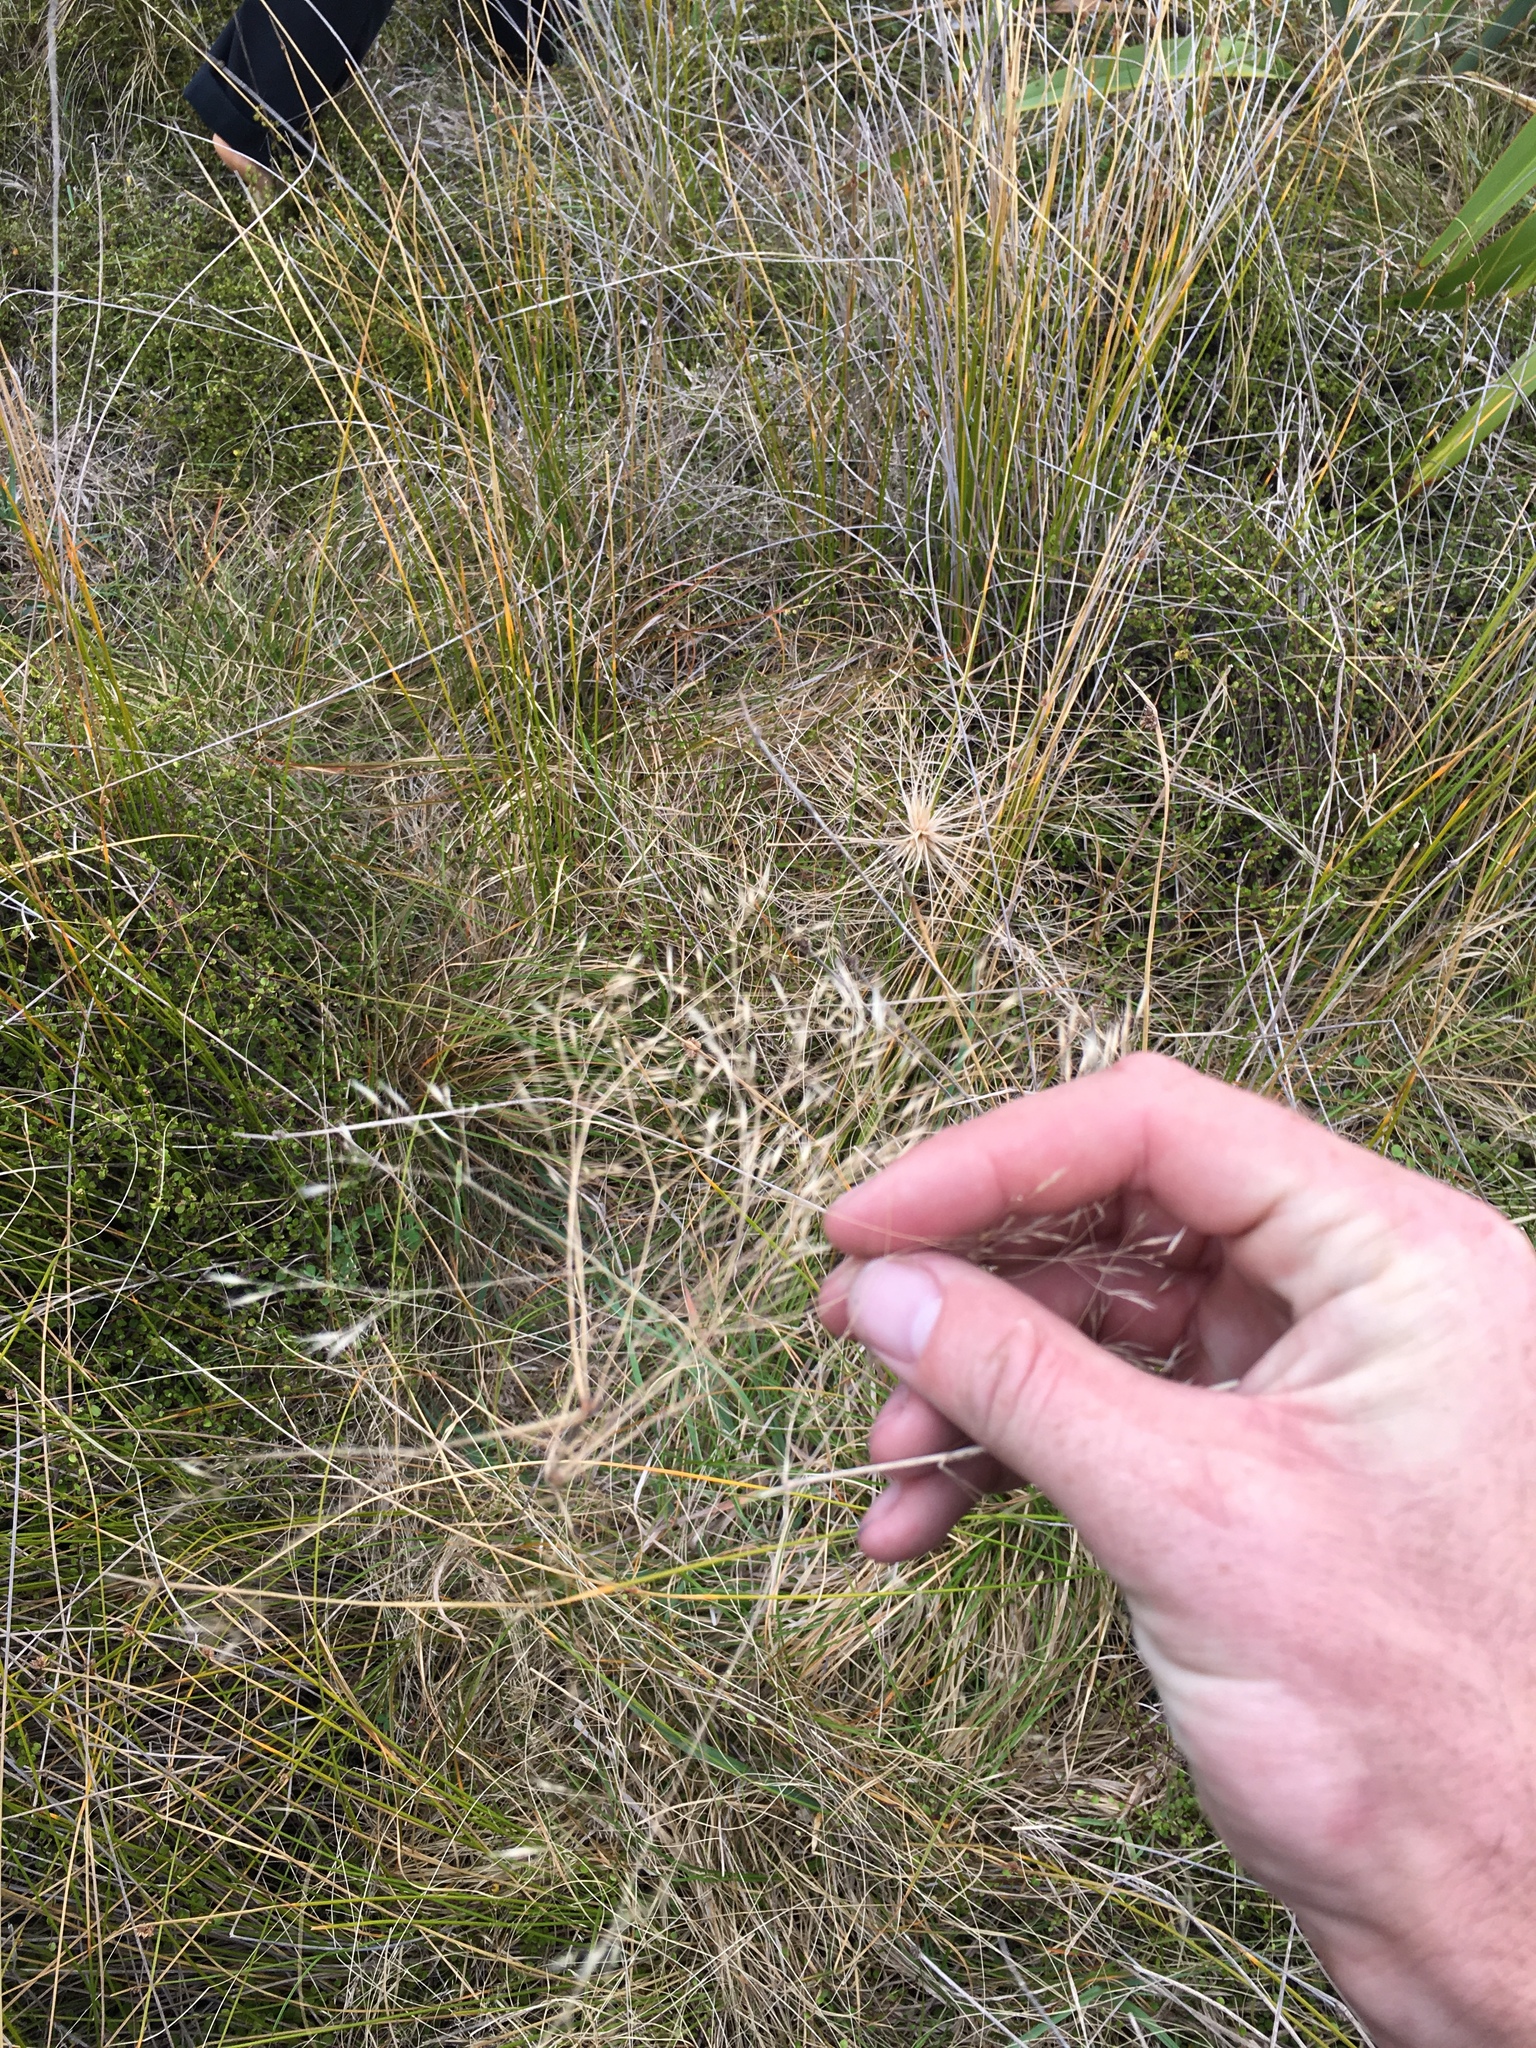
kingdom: Plantae
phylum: Tracheophyta
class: Liliopsida
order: Poales
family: Poaceae
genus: Lachnagrostis
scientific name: Lachnagrostis billardierei
